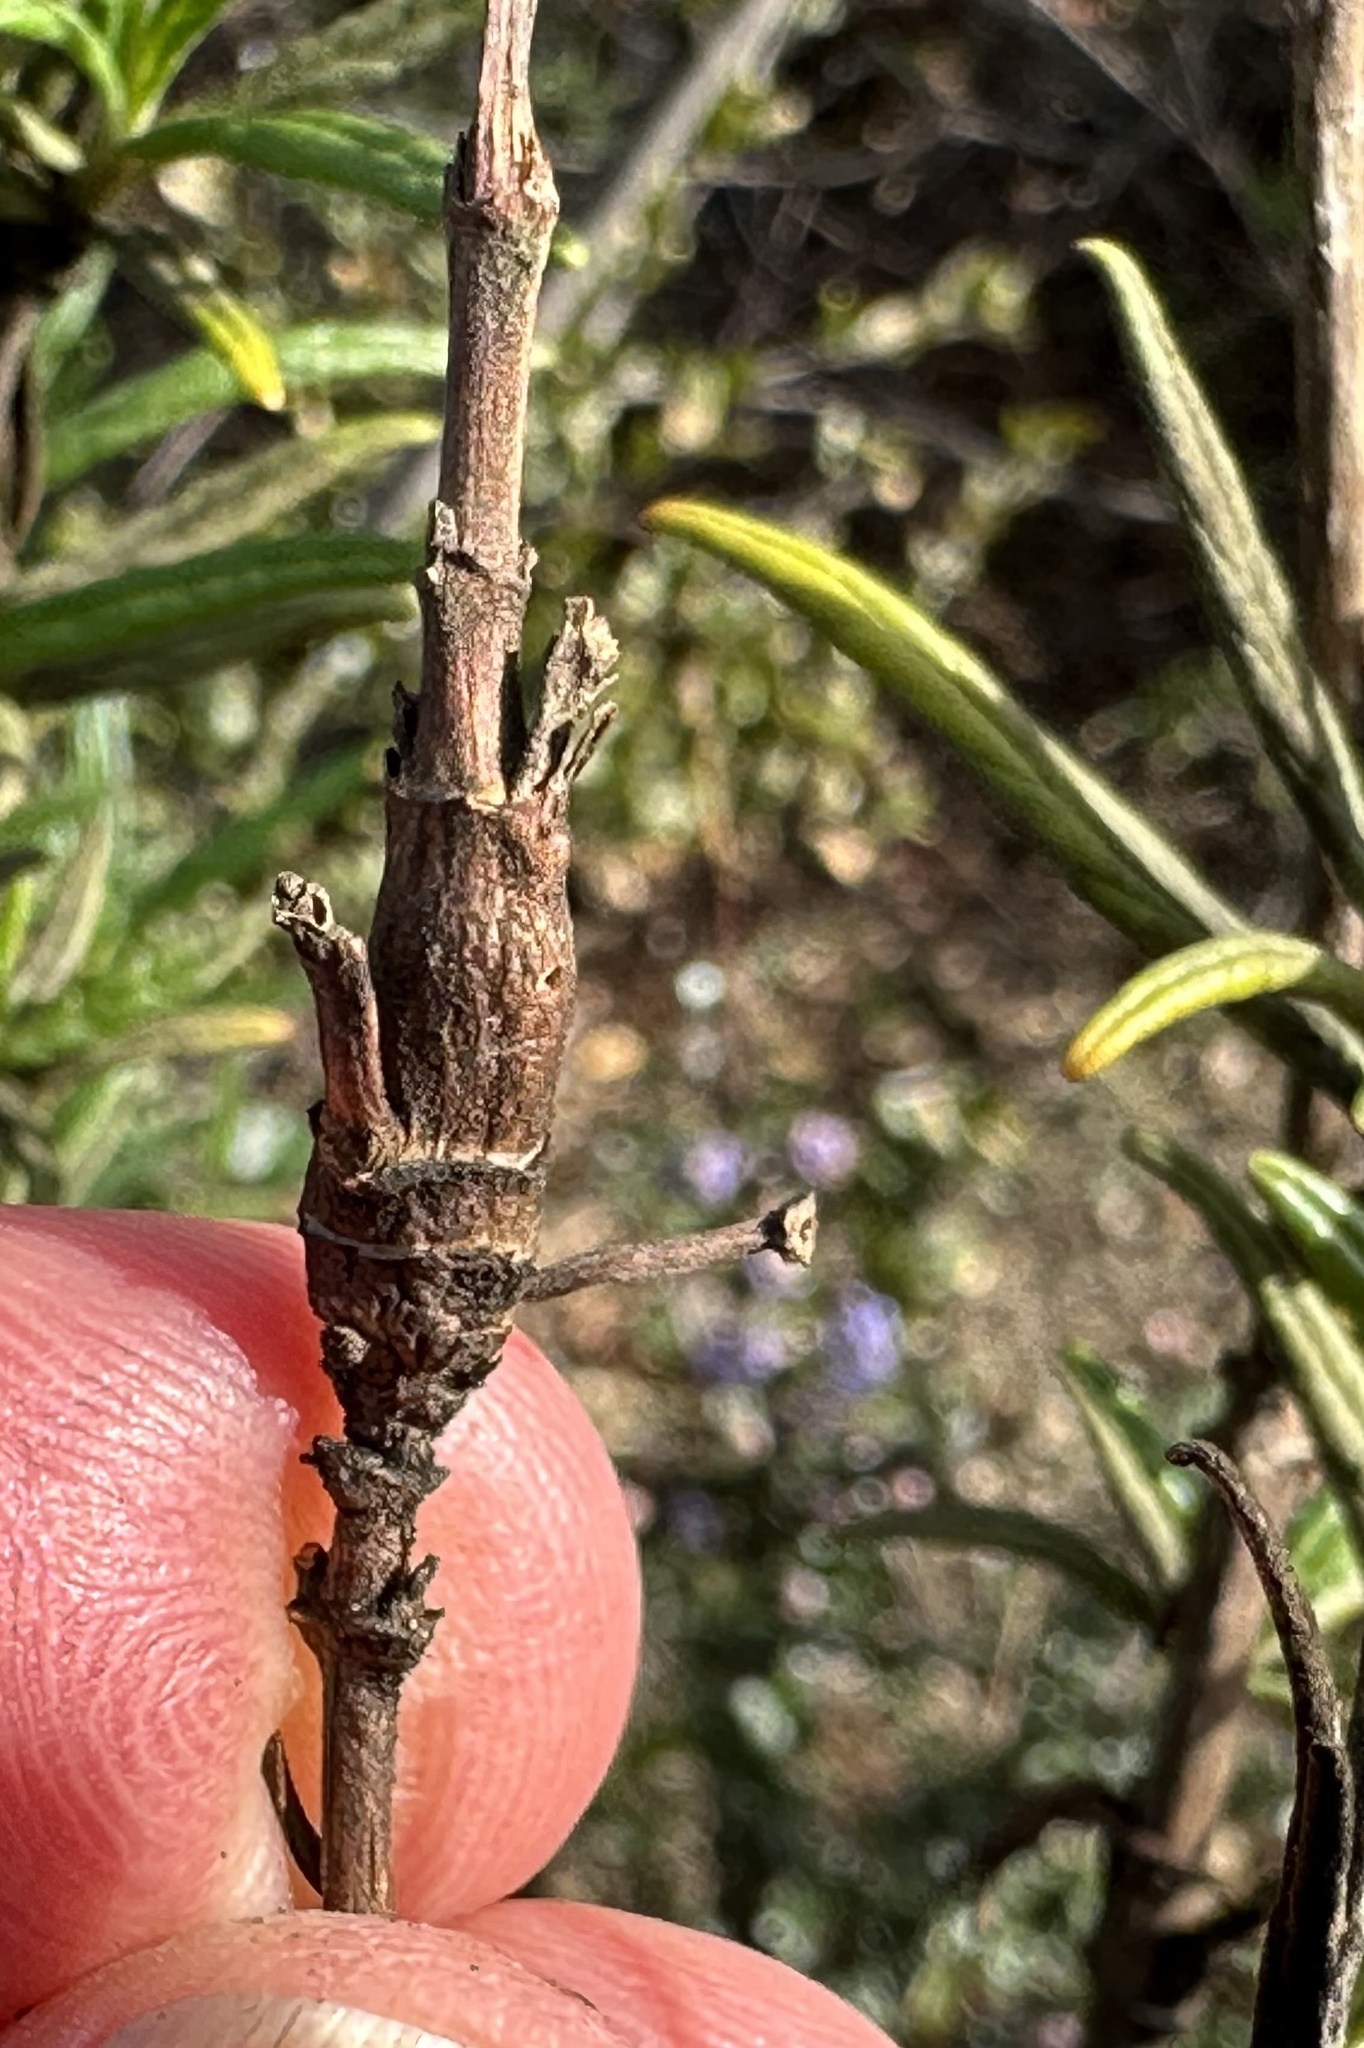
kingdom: Animalia
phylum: Arthropoda
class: Insecta
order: Diptera
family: Cecidomyiidae
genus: Neolasioptera
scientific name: Neolasioptera mimuli
